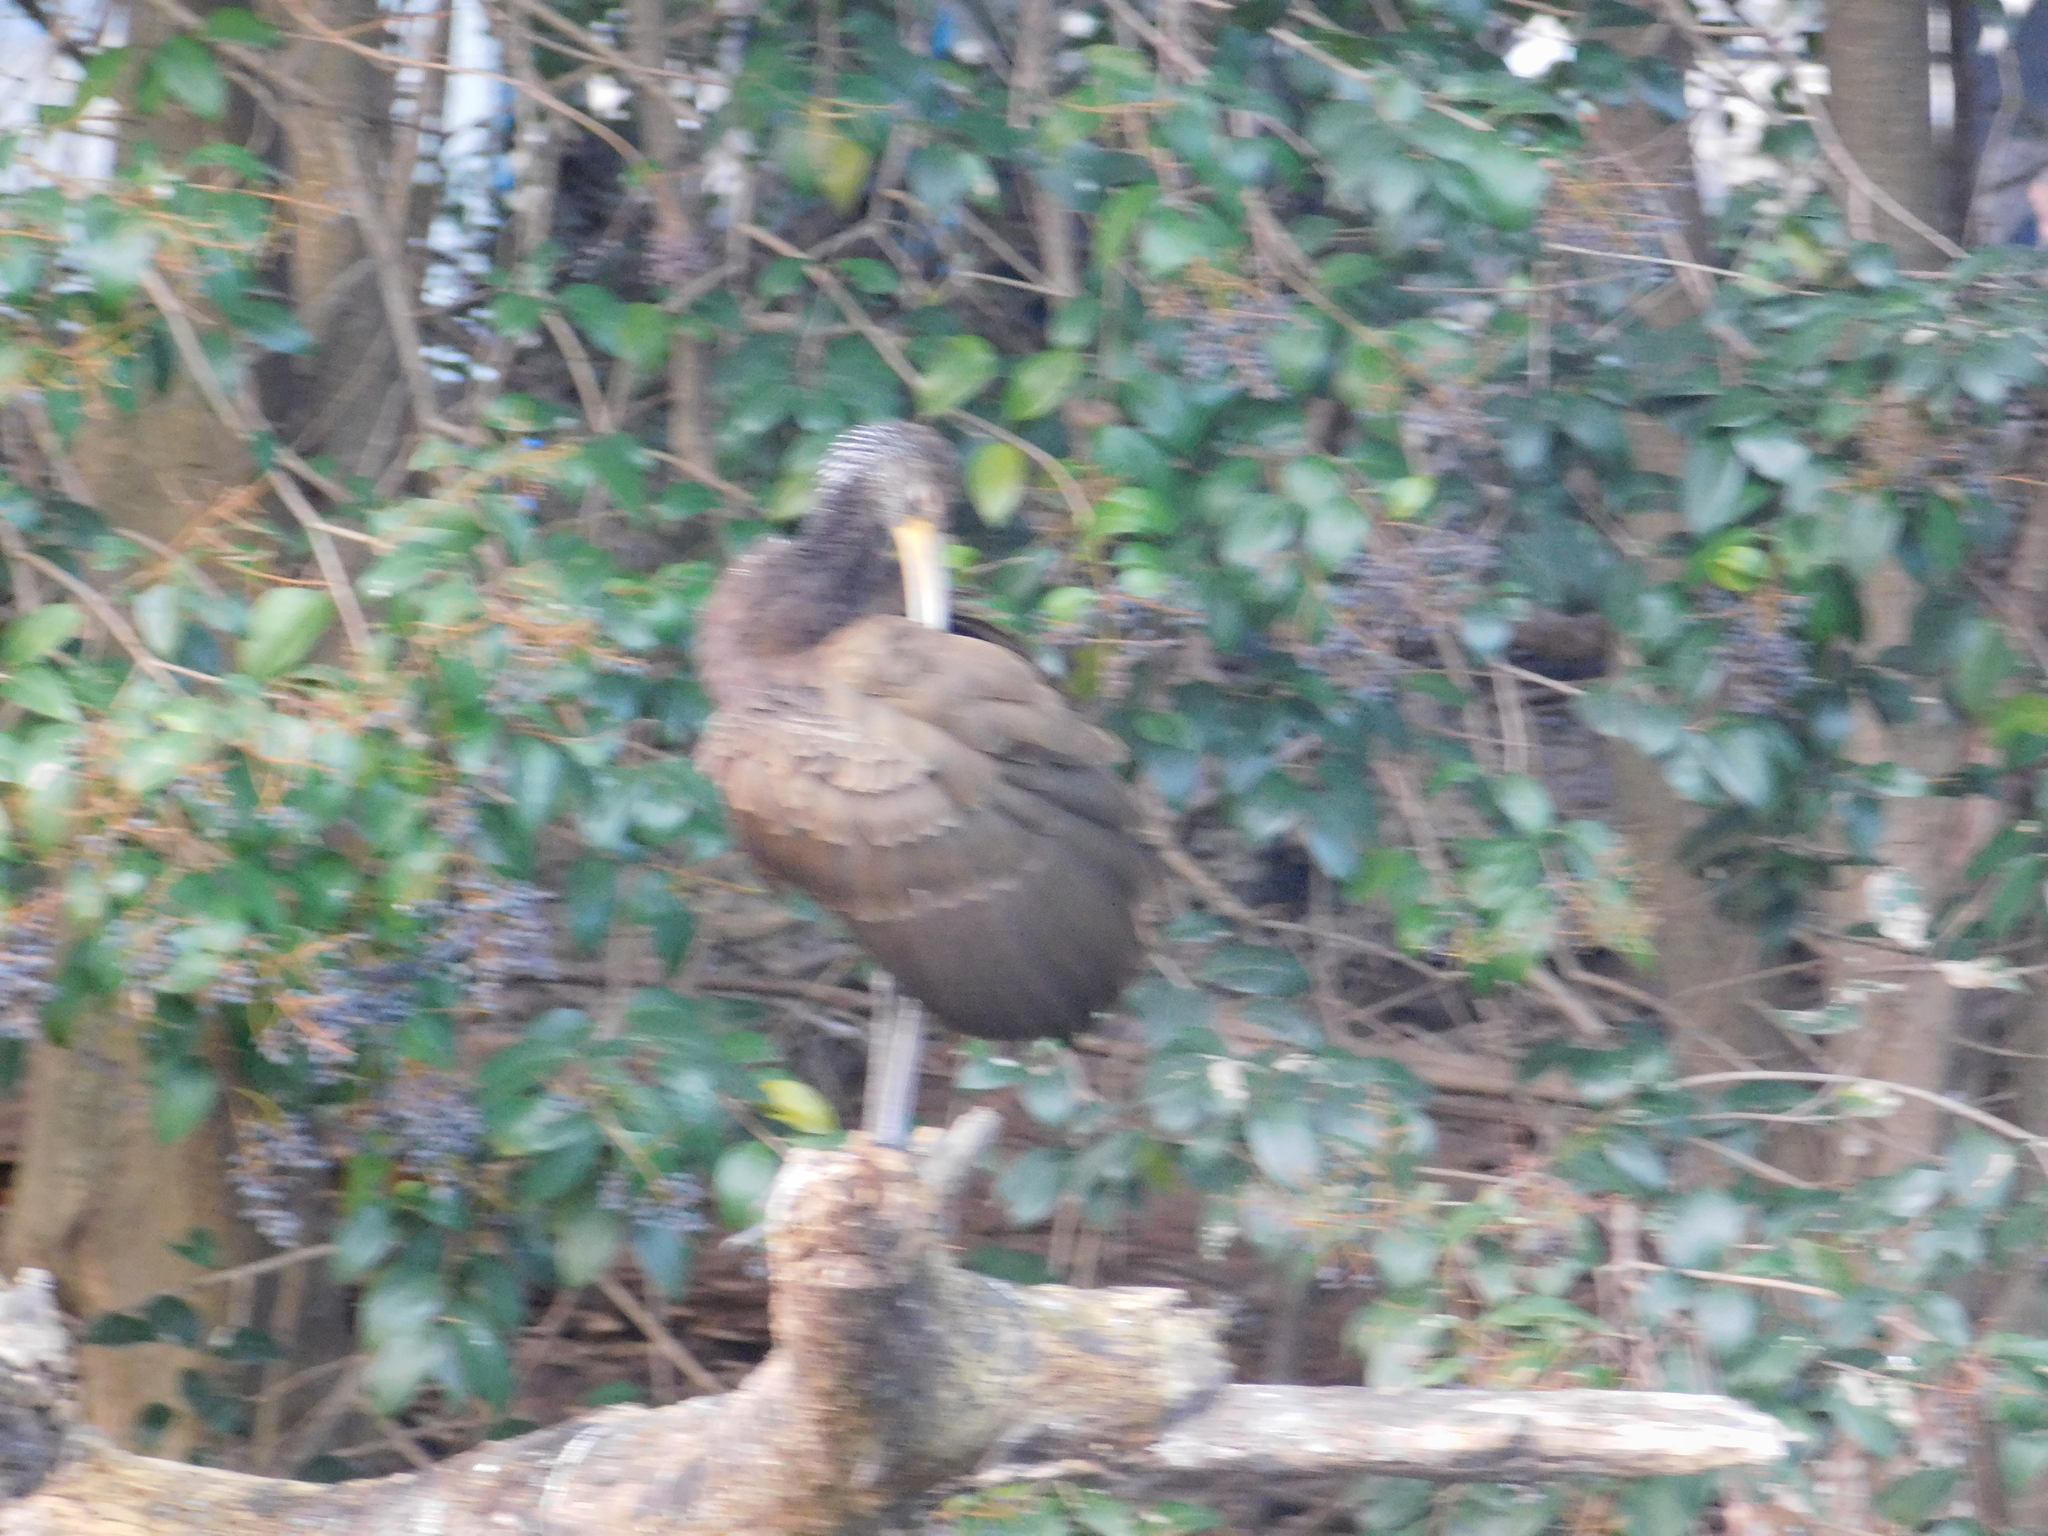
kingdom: Animalia
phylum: Chordata
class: Aves
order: Gruiformes
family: Aramidae
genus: Aramus
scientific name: Aramus guarauna
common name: Limpkin
